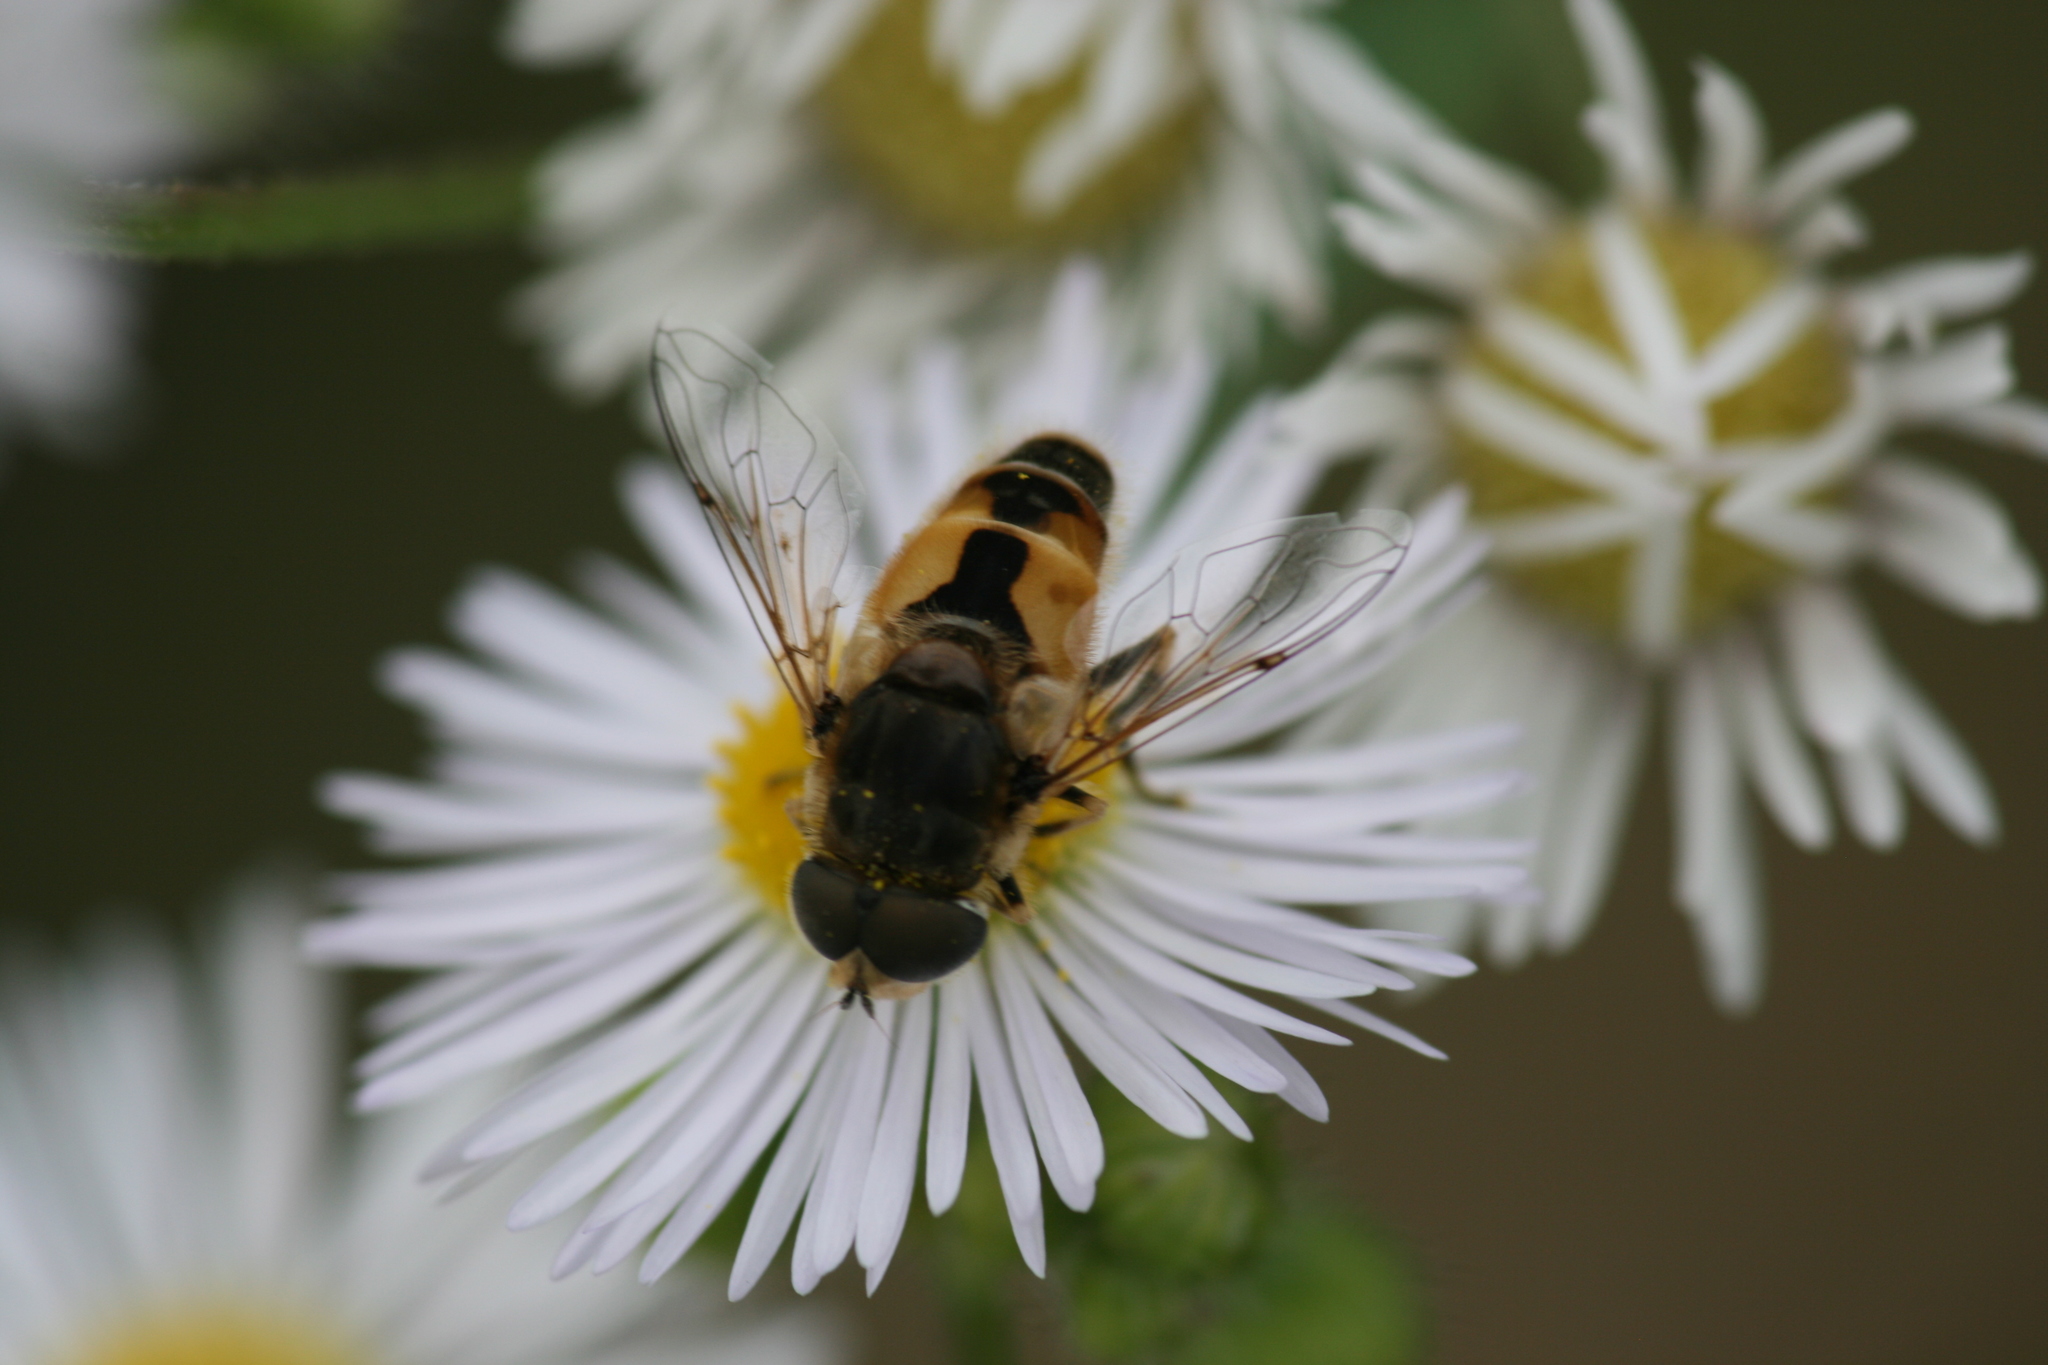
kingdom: Animalia
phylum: Arthropoda
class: Insecta
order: Diptera
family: Syrphidae
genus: Eristalis
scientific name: Eristalis arbustorum
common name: Hover fly
